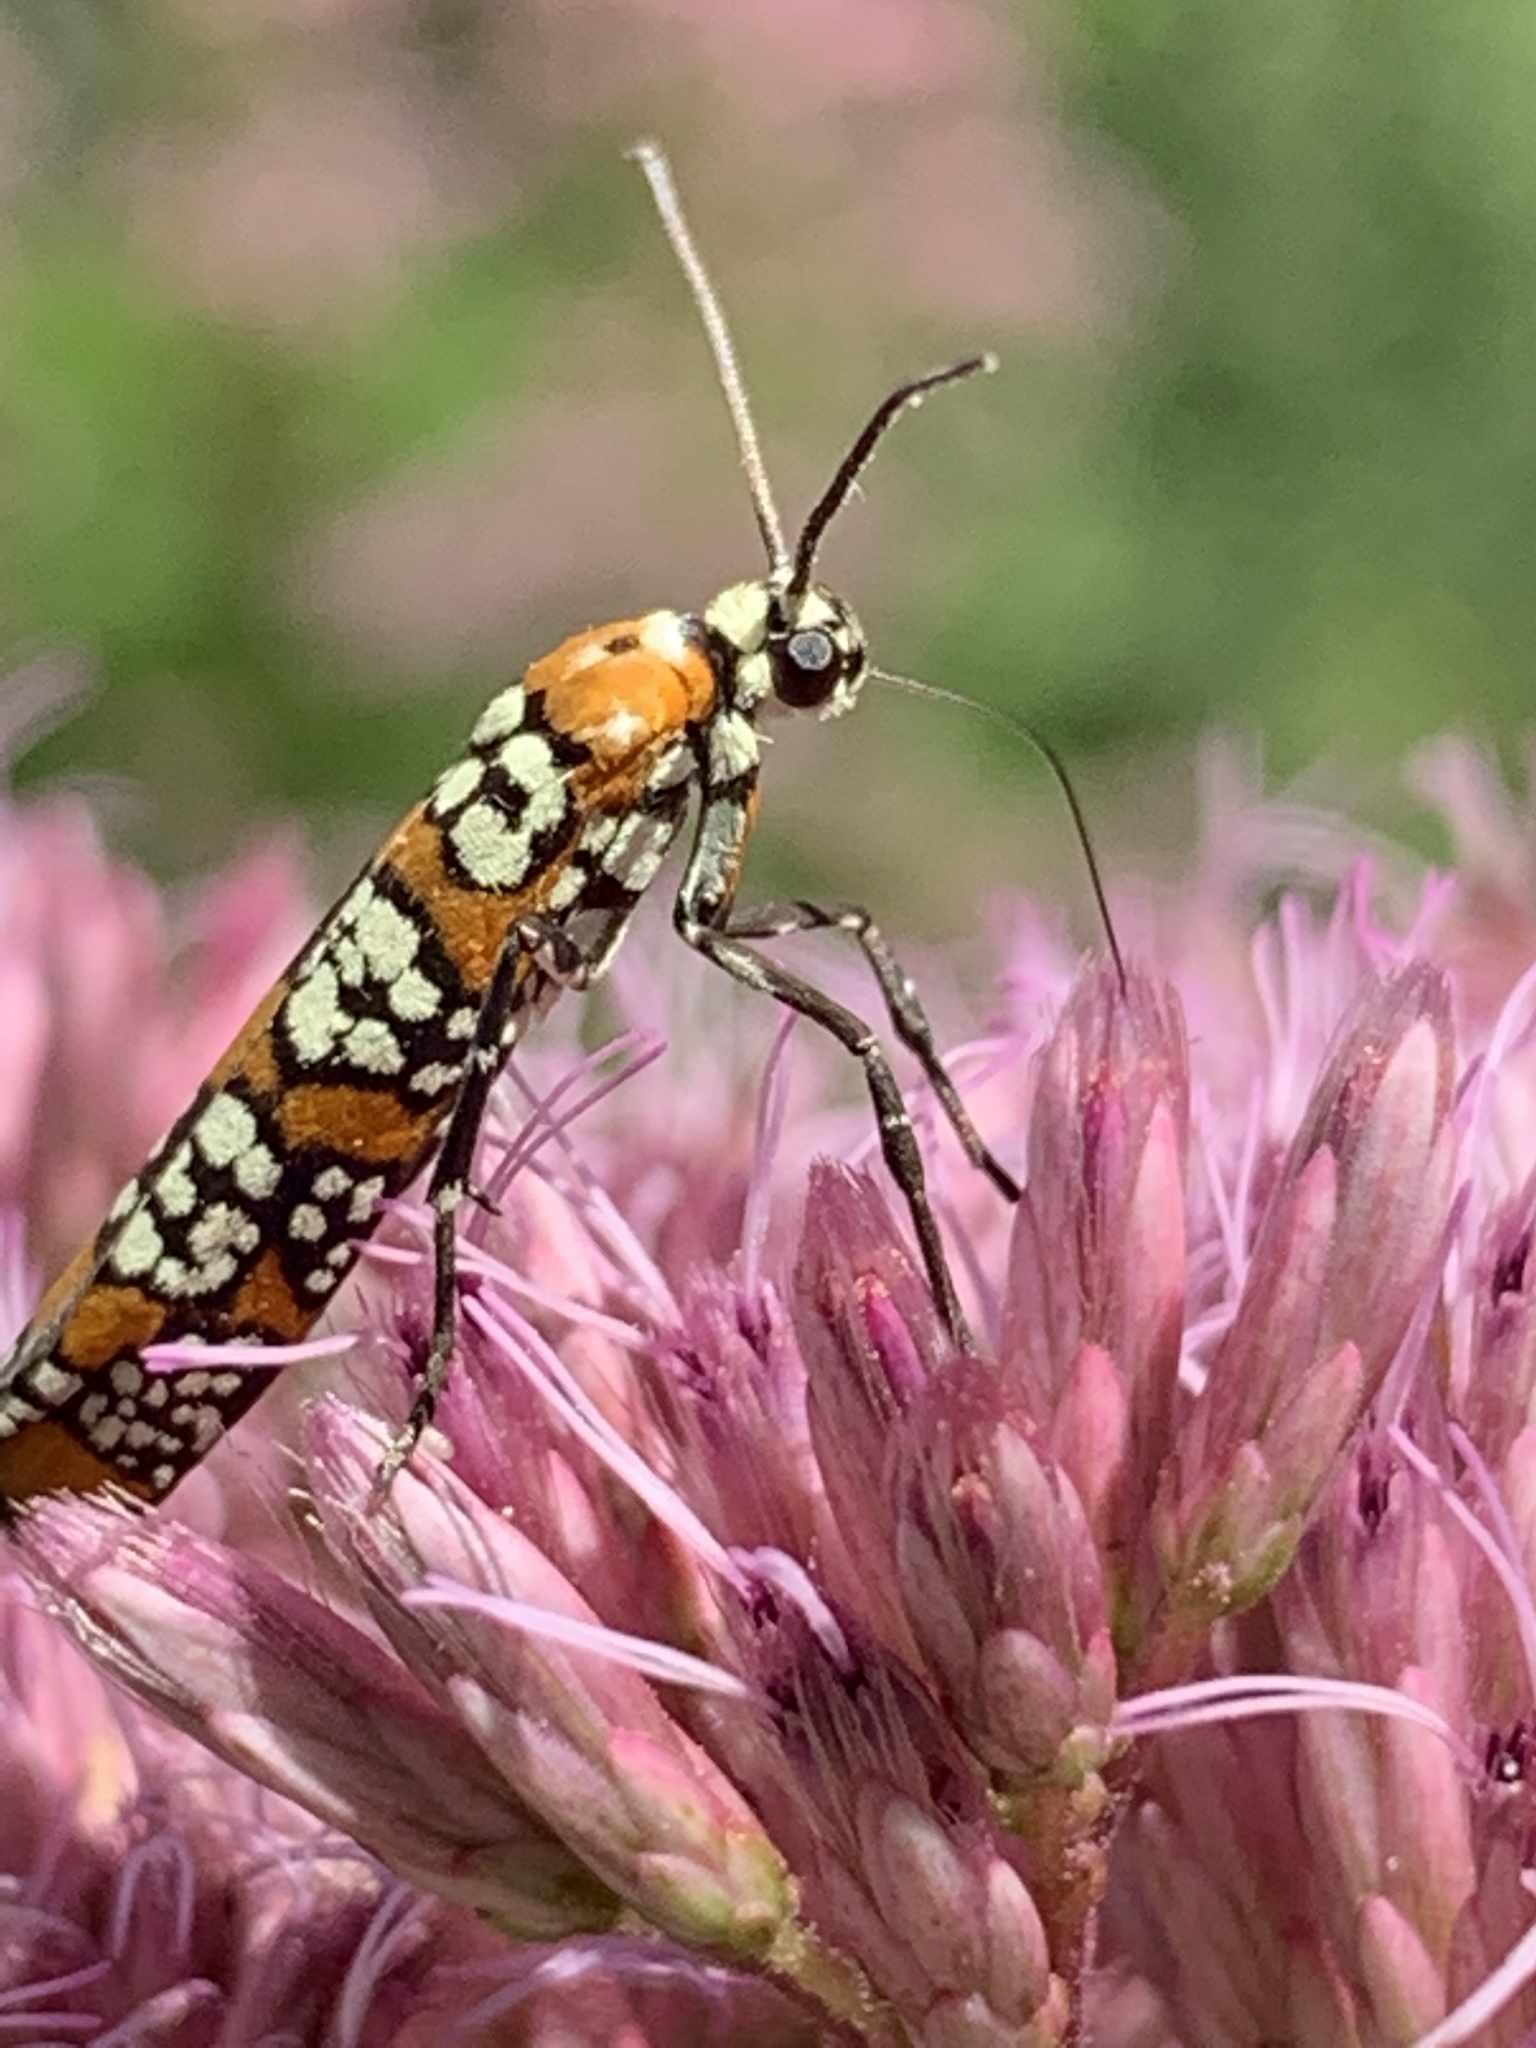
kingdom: Animalia
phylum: Arthropoda
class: Insecta
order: Lepidoptera
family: Attevidae
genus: Atteva
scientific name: Atteva punctella
